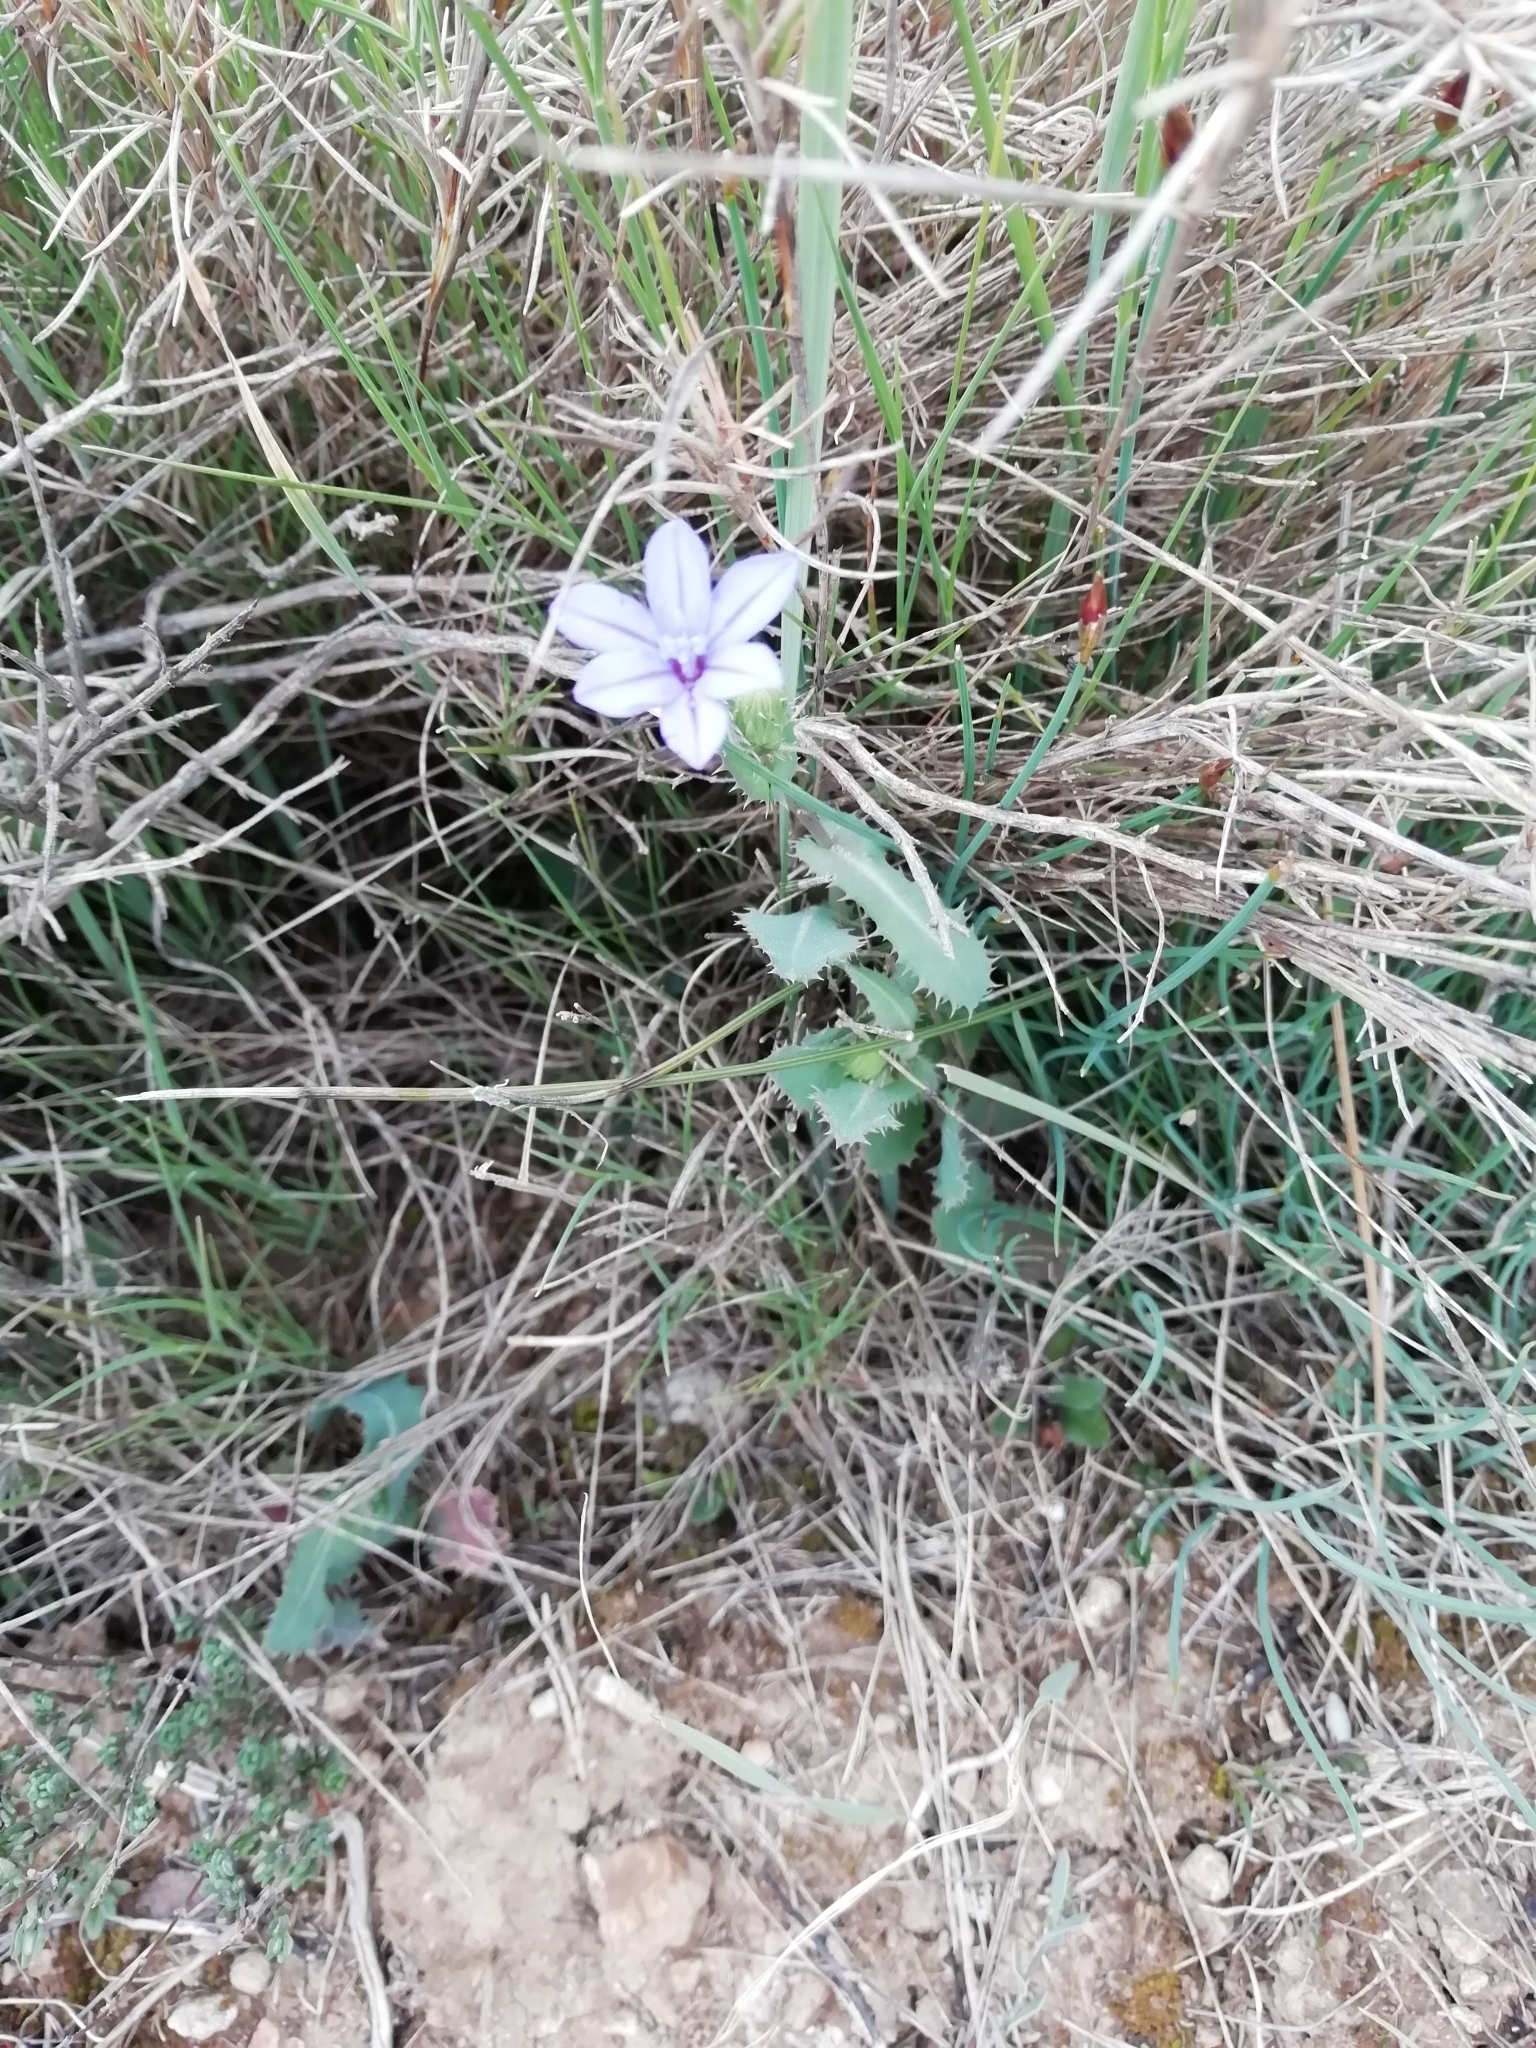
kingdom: Plantae
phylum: Tracheophyta
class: Liliopsida
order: Asparagales
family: Asparagaceae
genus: Aphyllanthes
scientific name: Aphyllanthes monspeliensis
